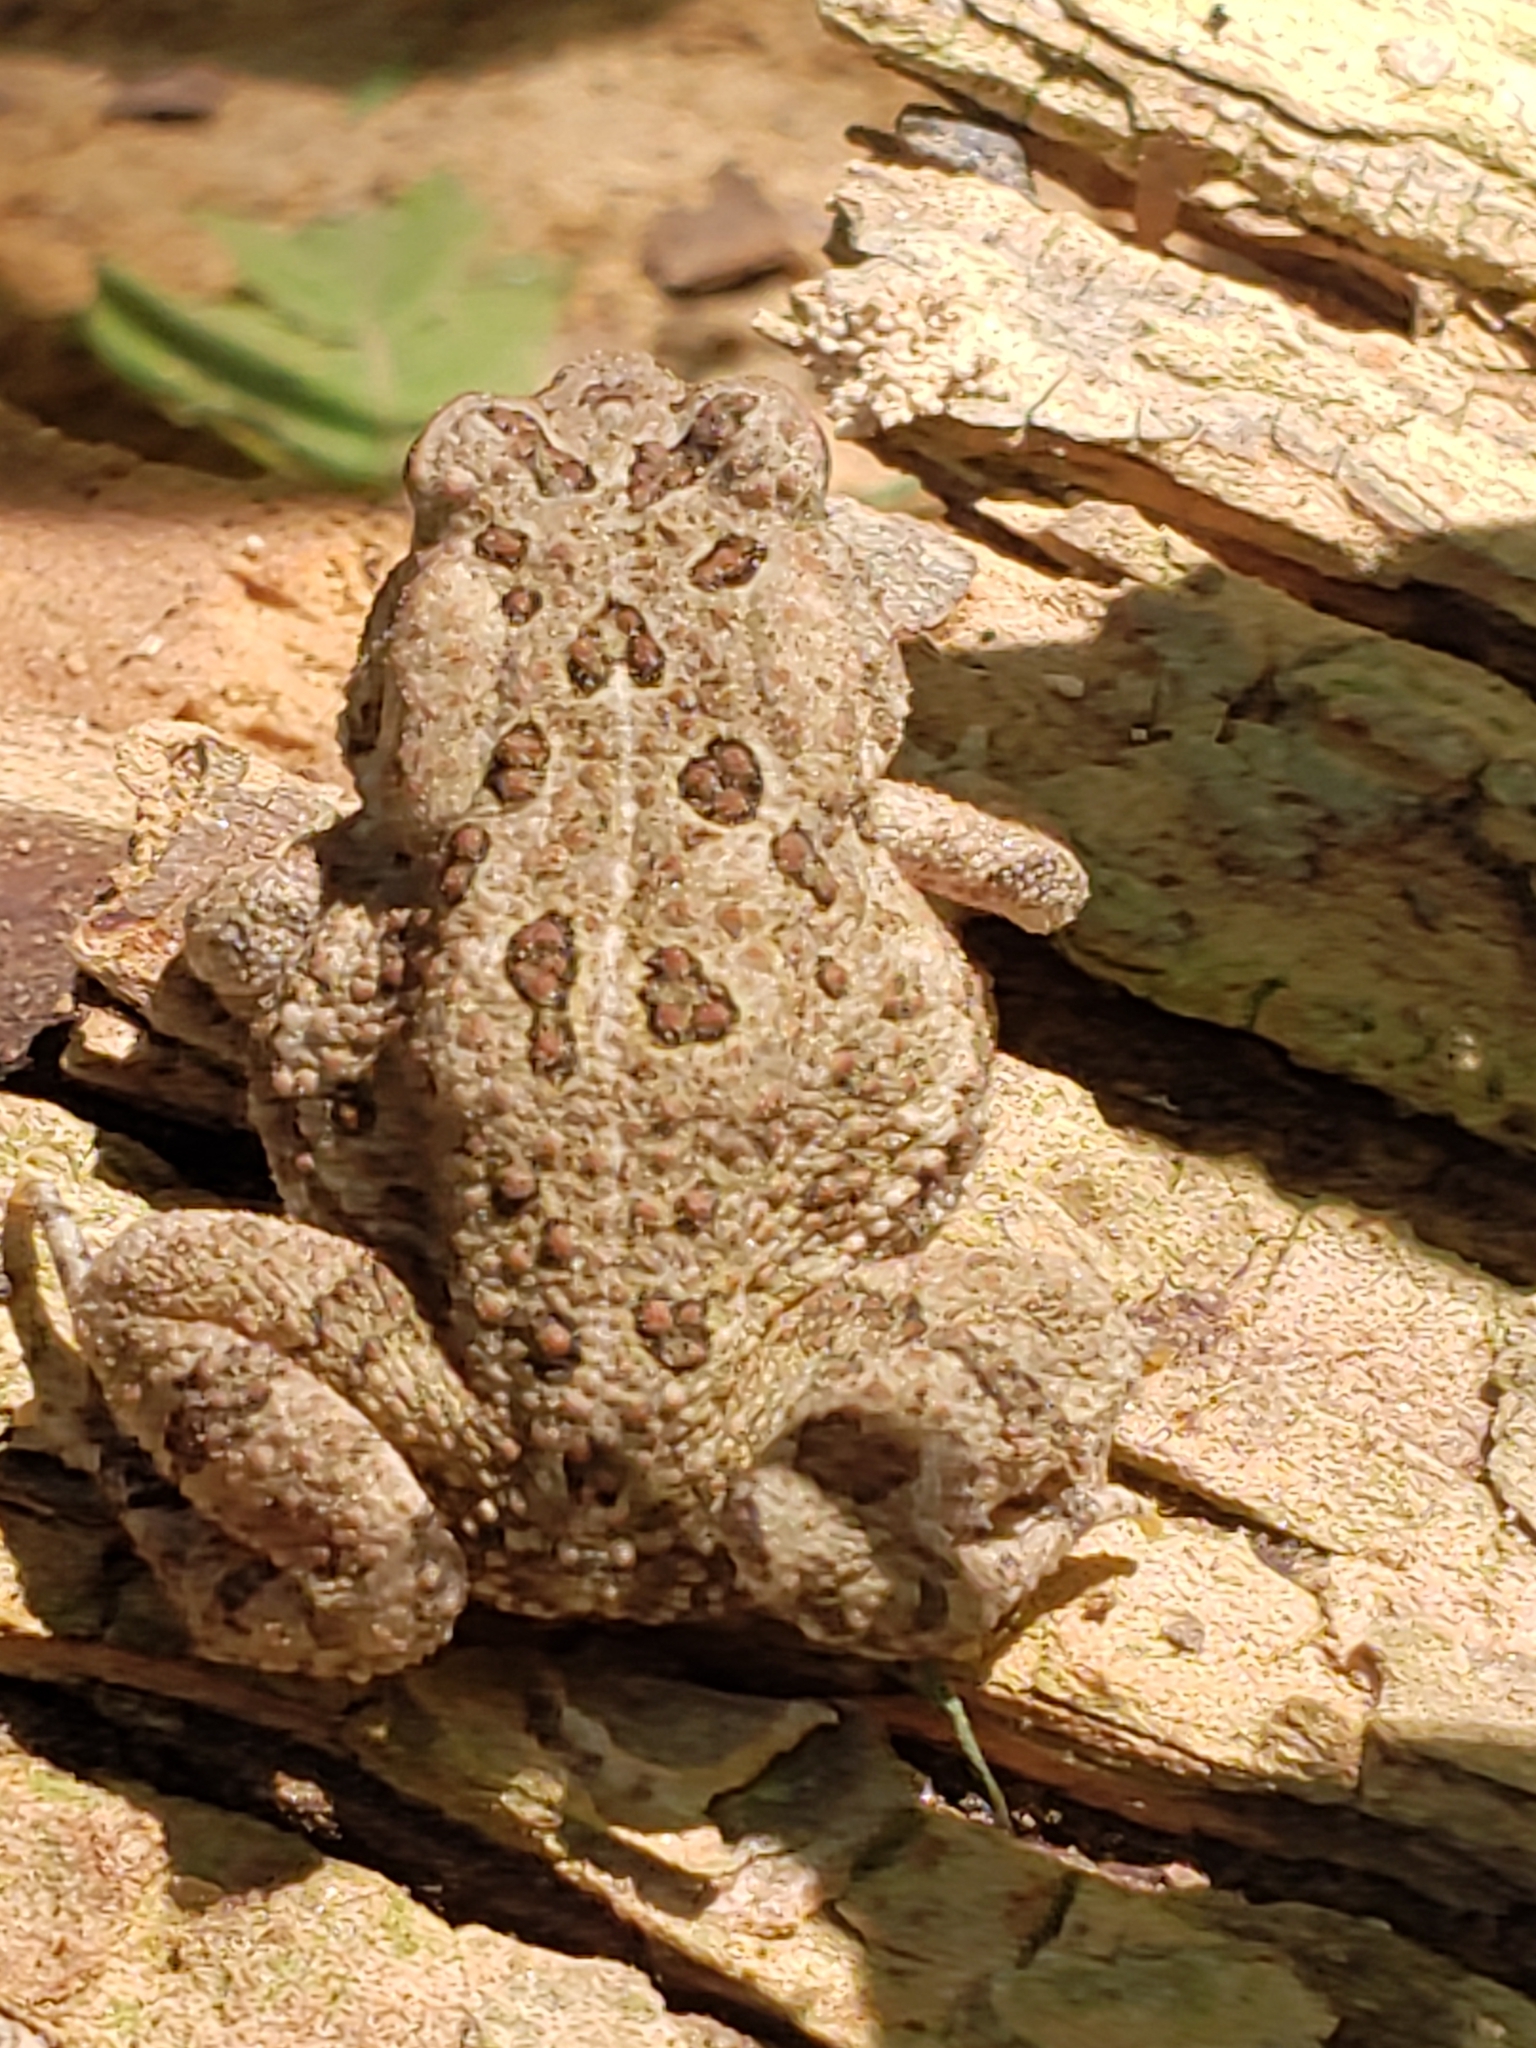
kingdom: Animalia
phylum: Chordata
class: Amphibia
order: Anura
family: Bufonidae
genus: Anaxyrus
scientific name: Anaxyrus fowleri
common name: Fowler's toad
